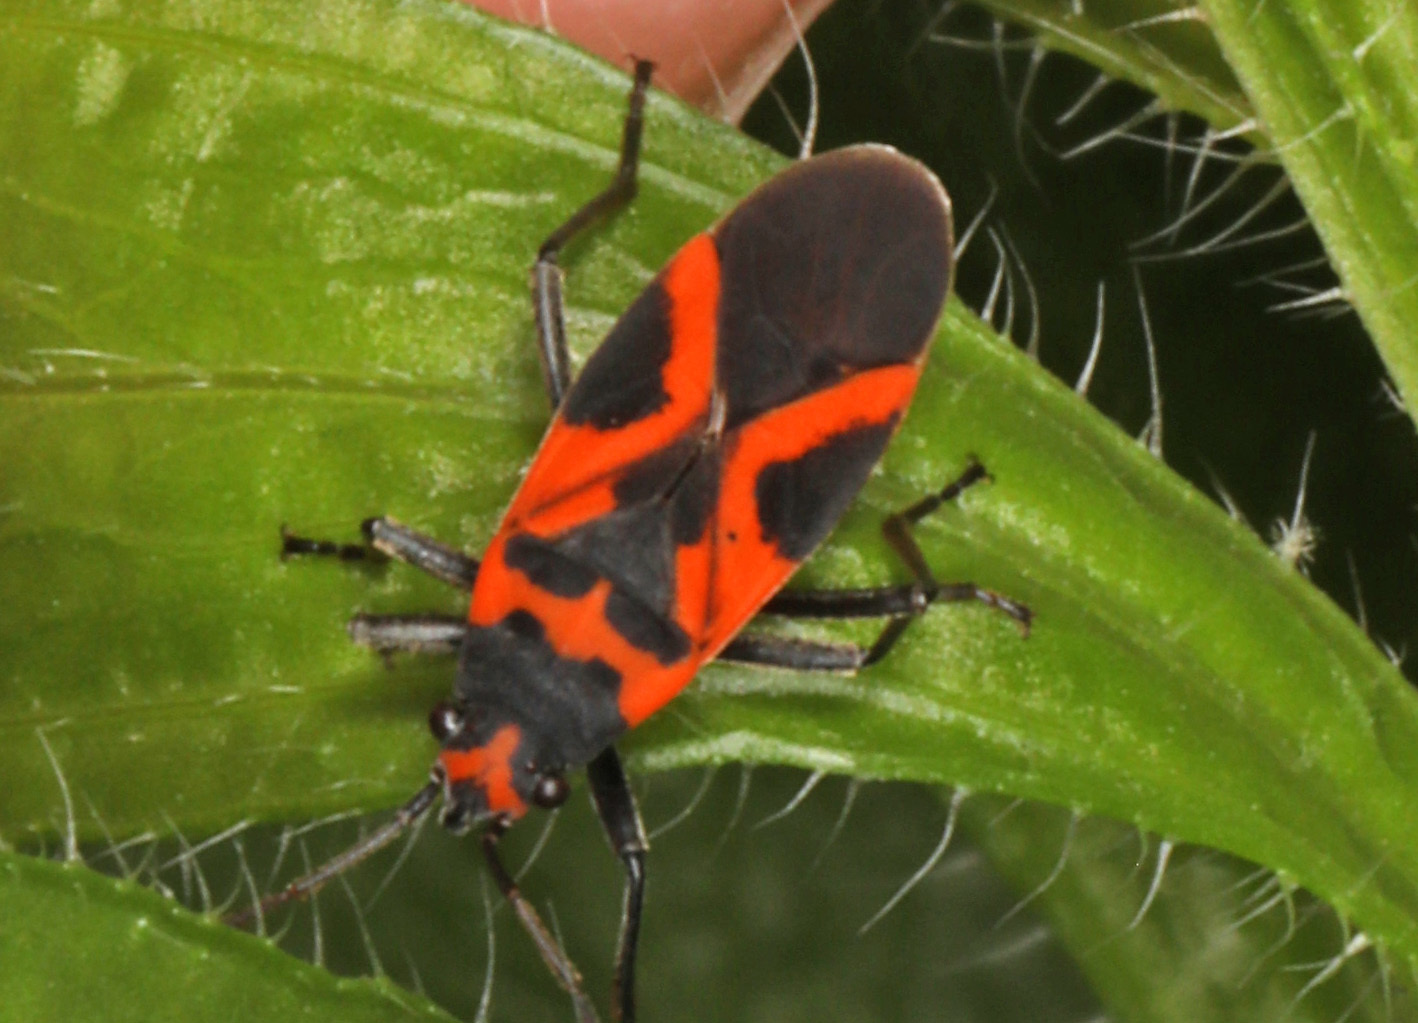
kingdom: Animalia
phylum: Arthropoda
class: Insecta
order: Hemiptera
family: Lygaeidae
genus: Lygaeus
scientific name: Lygaeus turcicus
